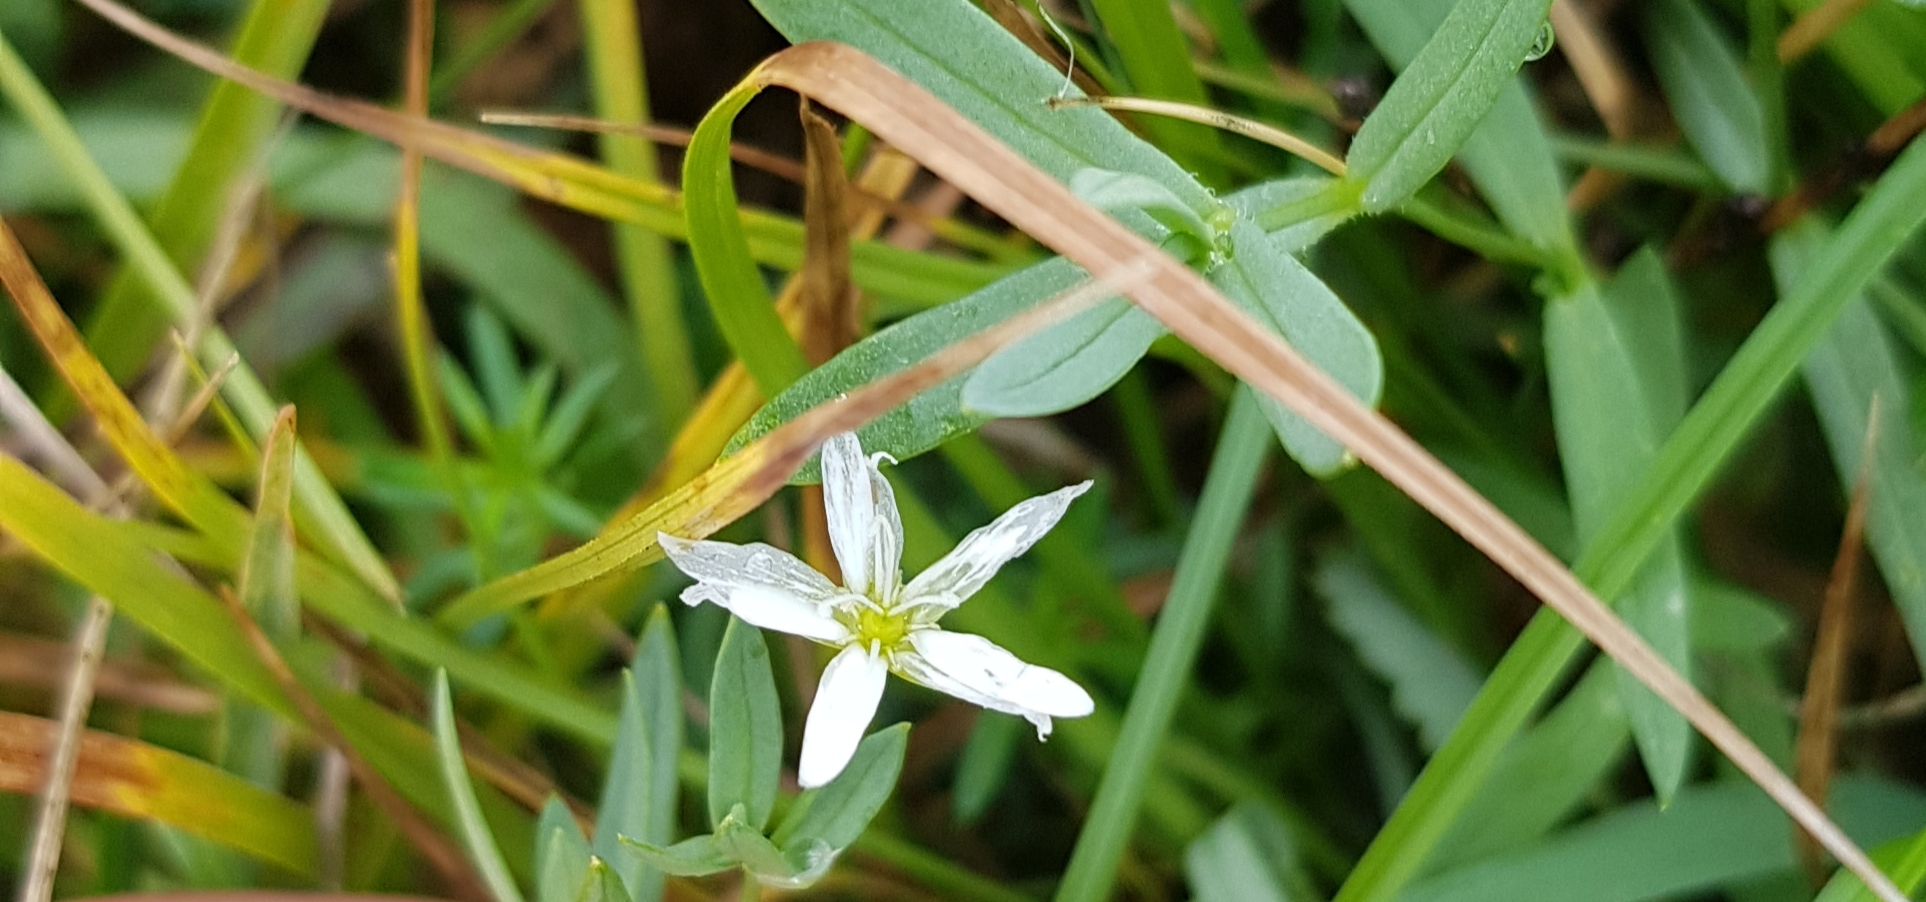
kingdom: Plantae
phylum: Tracheophyta
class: Magnoliopsida
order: Caryophyllales
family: Caryophyllaceae
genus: Stellaria
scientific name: Stellaria graminea
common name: Grass-like starwort
